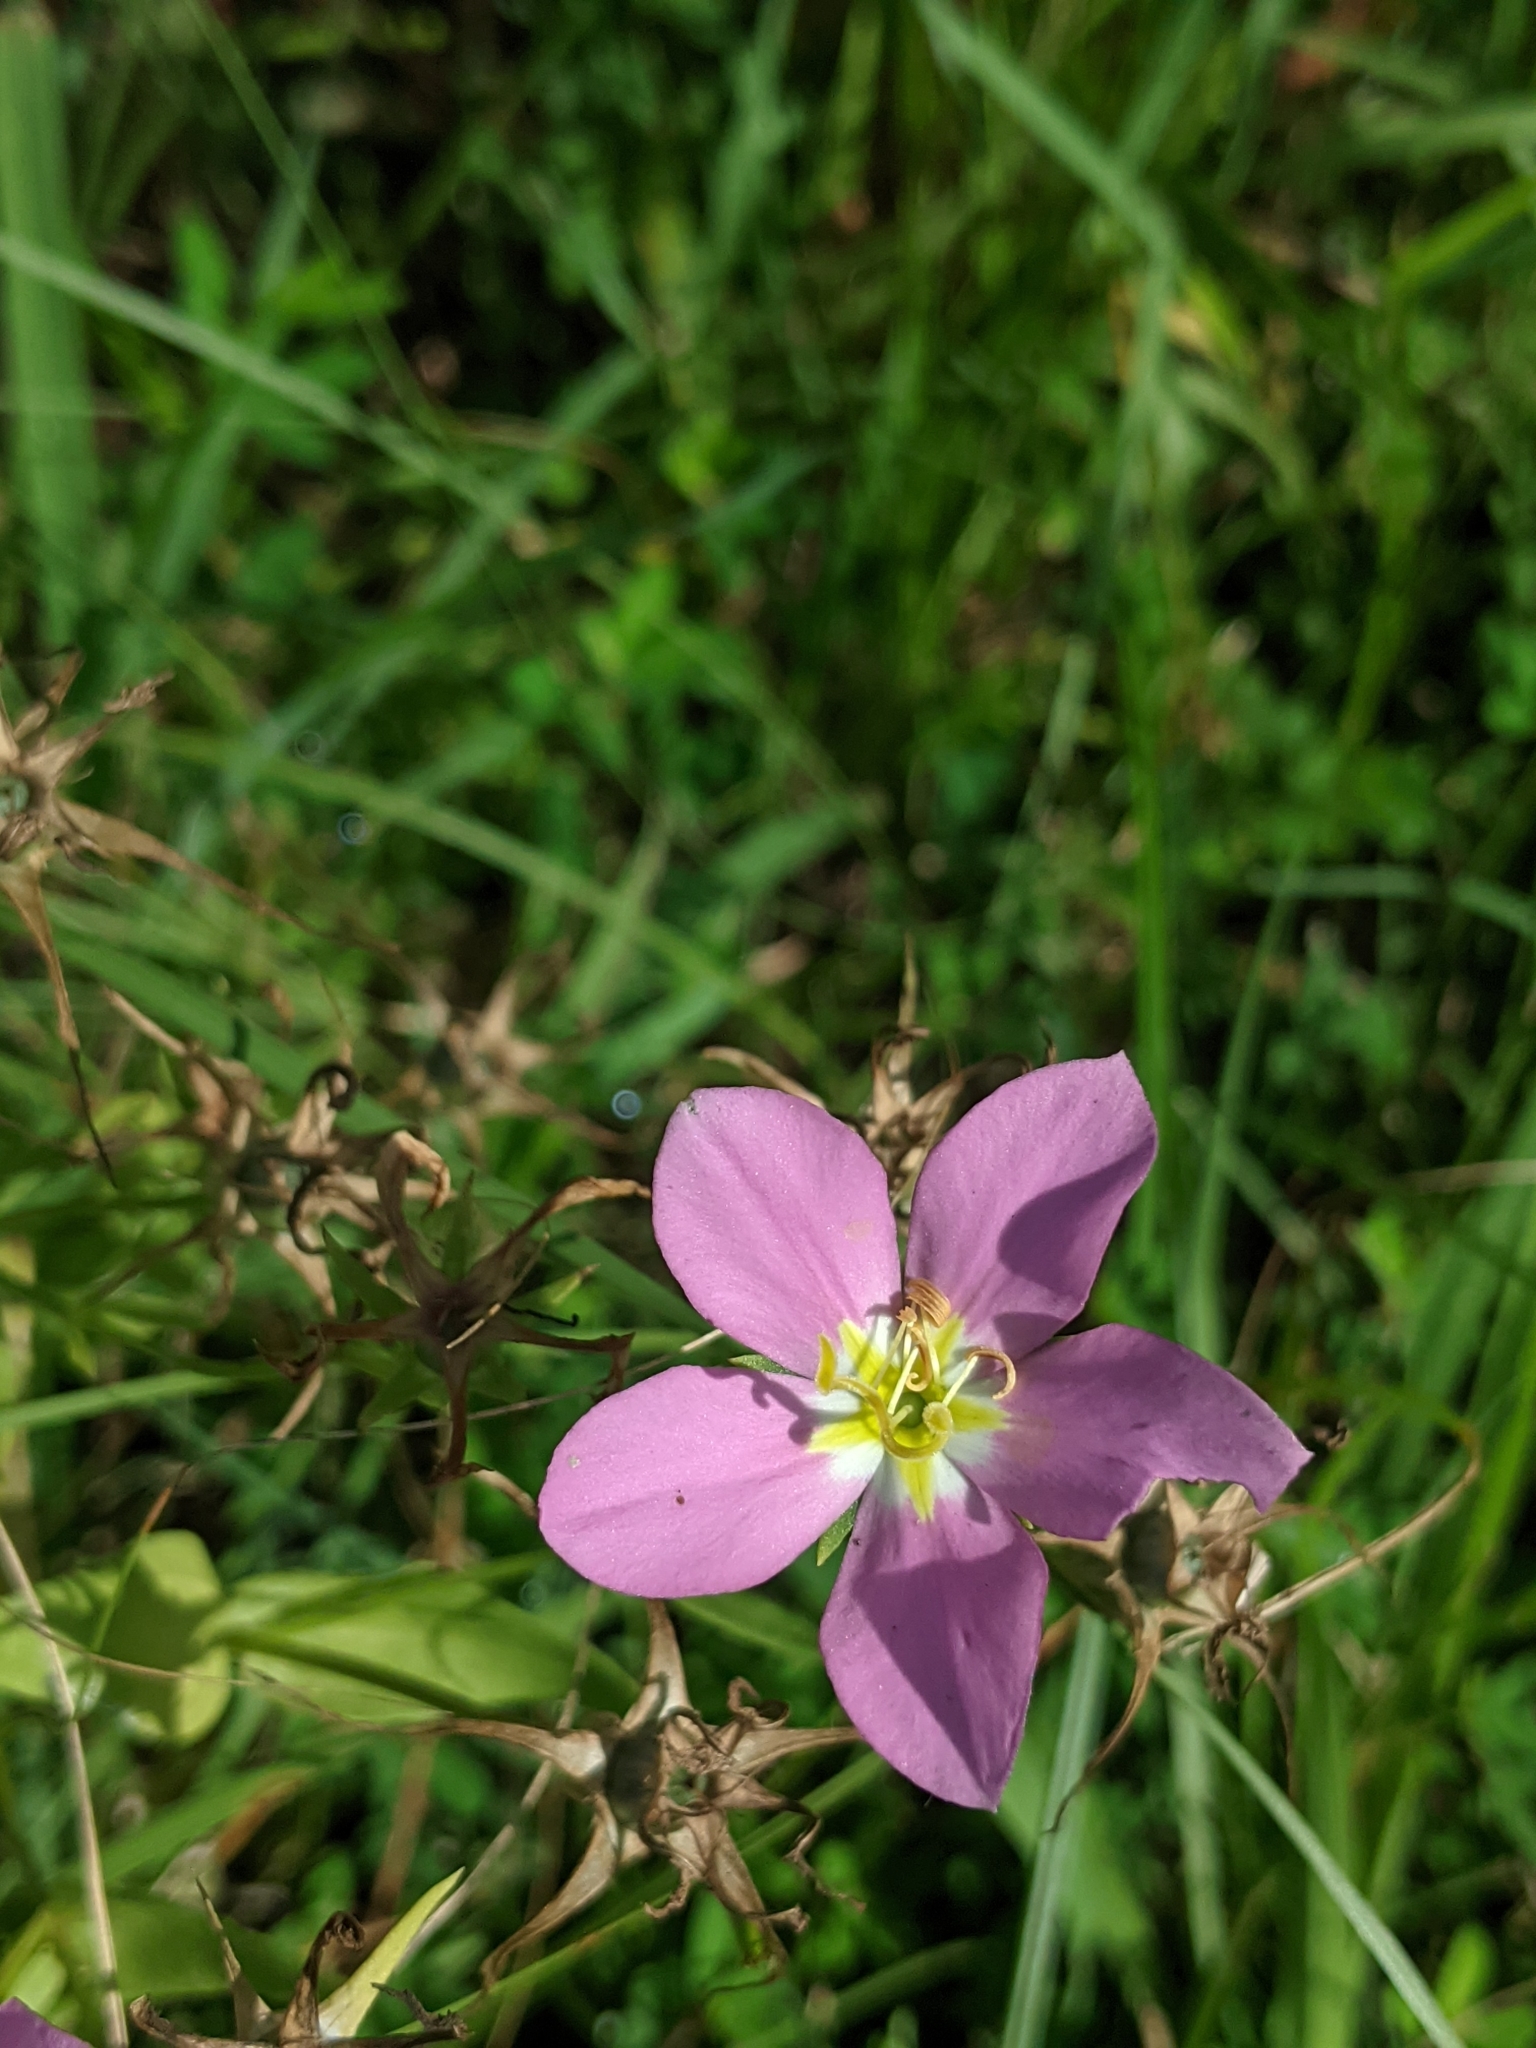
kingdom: Plantae
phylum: Tracheophyta
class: Magnoliopsida
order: Gentianales
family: Gentianaceae
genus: Sabatia
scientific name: Sabatia campestris
